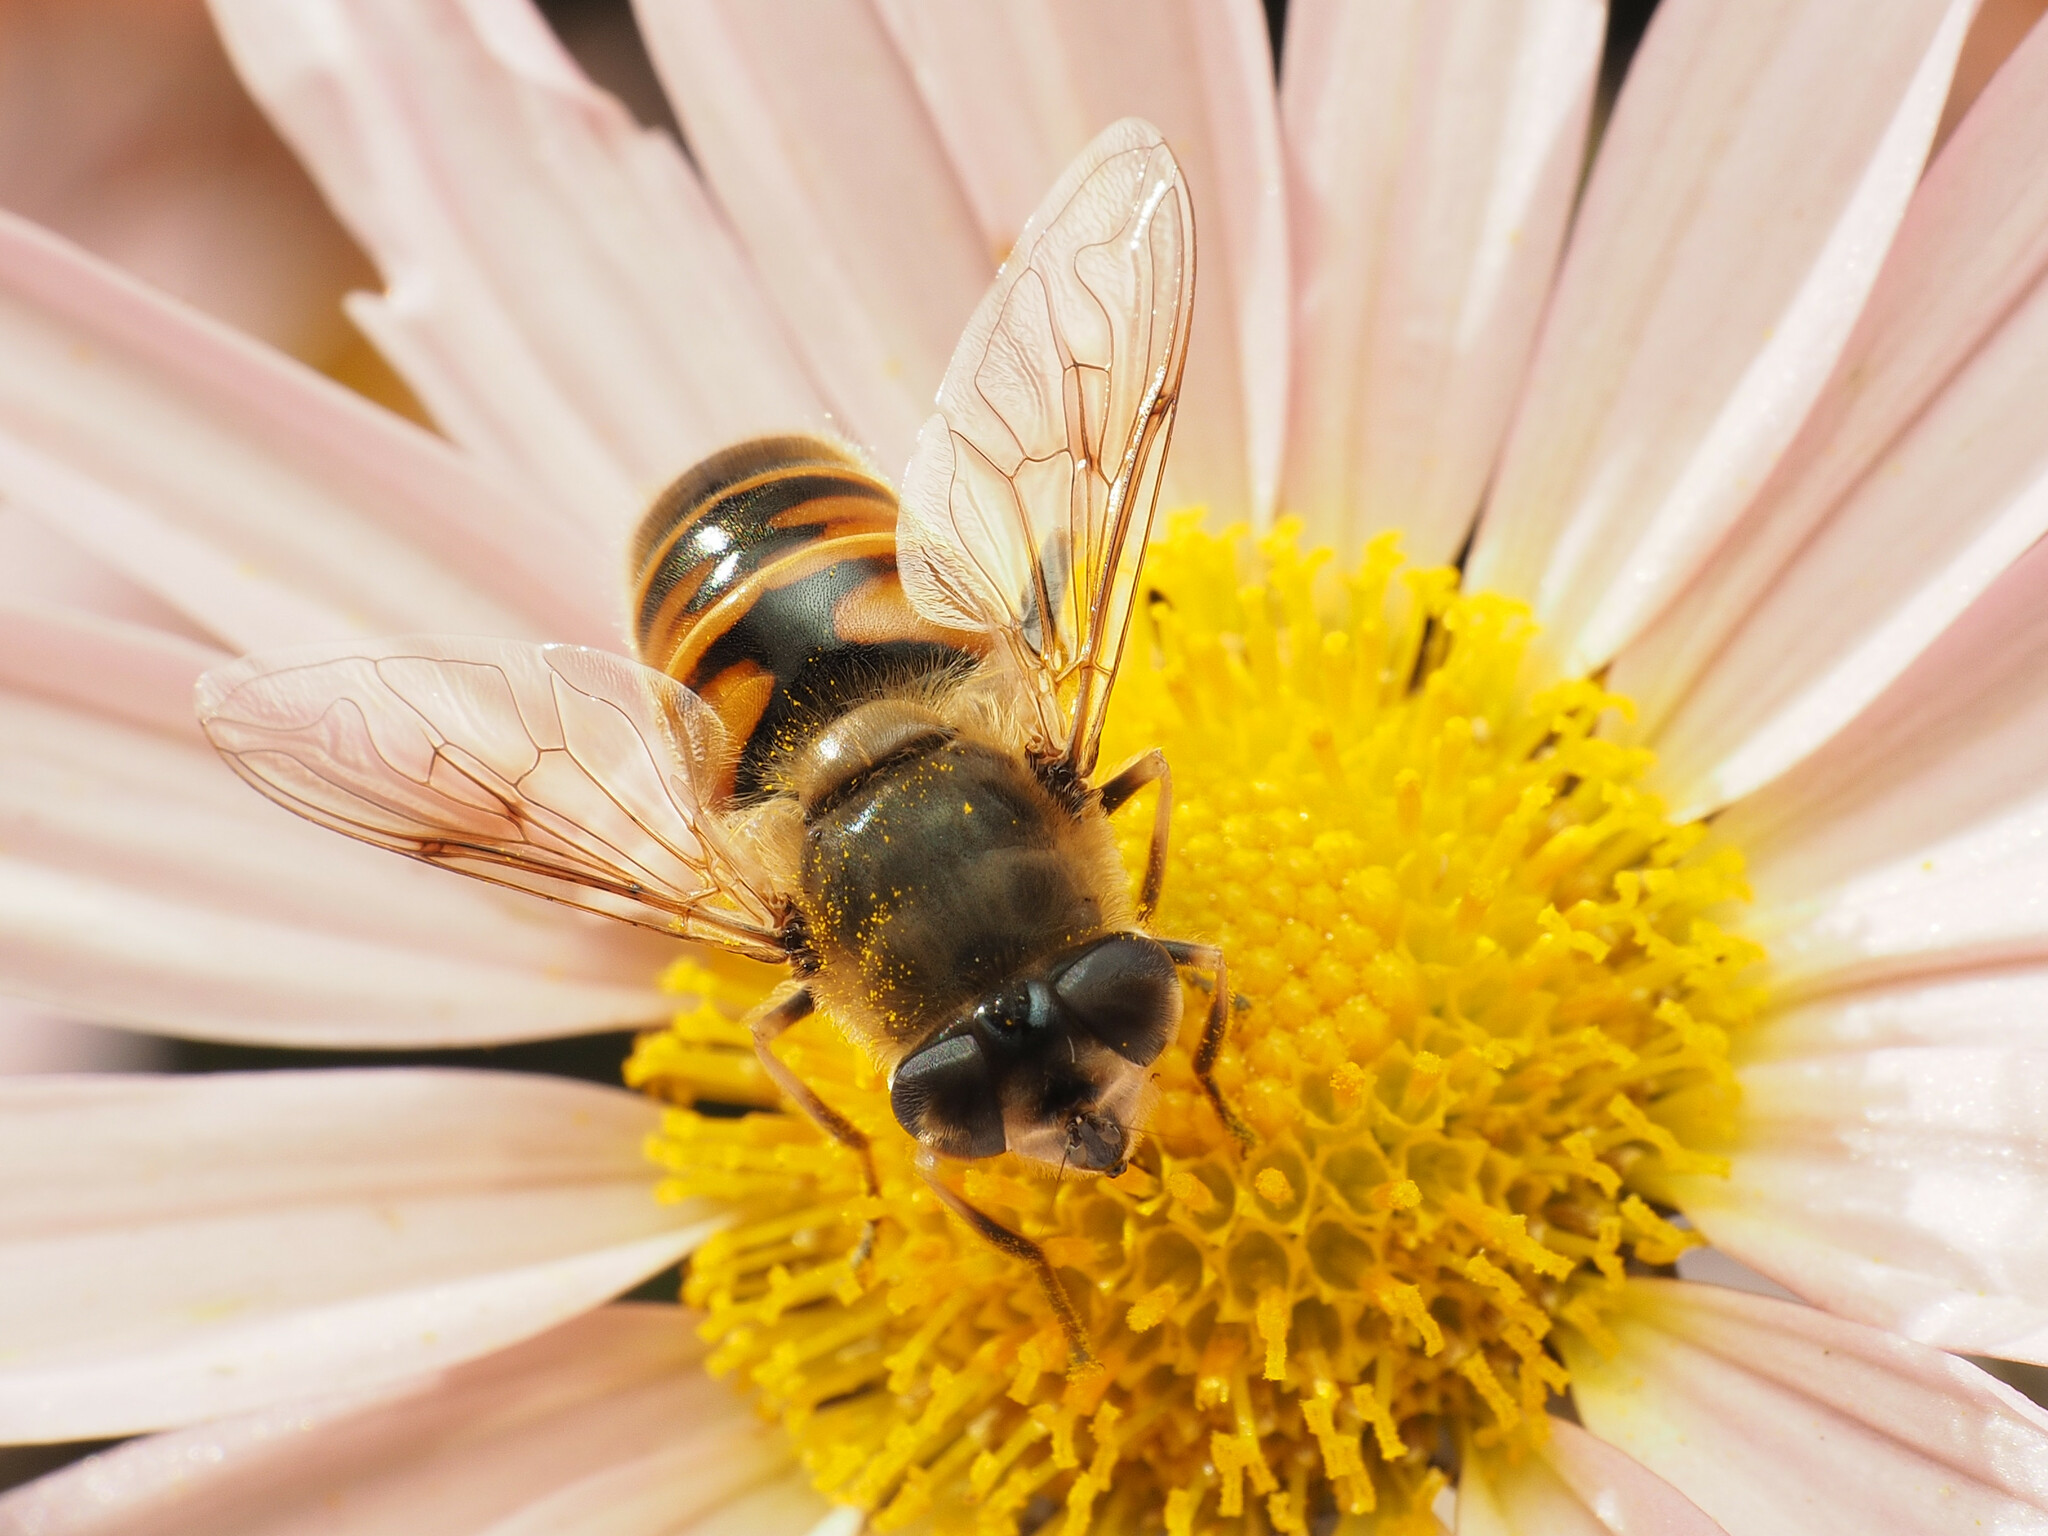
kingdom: Animalia
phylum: Arthropoda
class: Insecta
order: Diptera
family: Syrphidae
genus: Eristalis
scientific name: Eristalis tenax
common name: Drone fly
